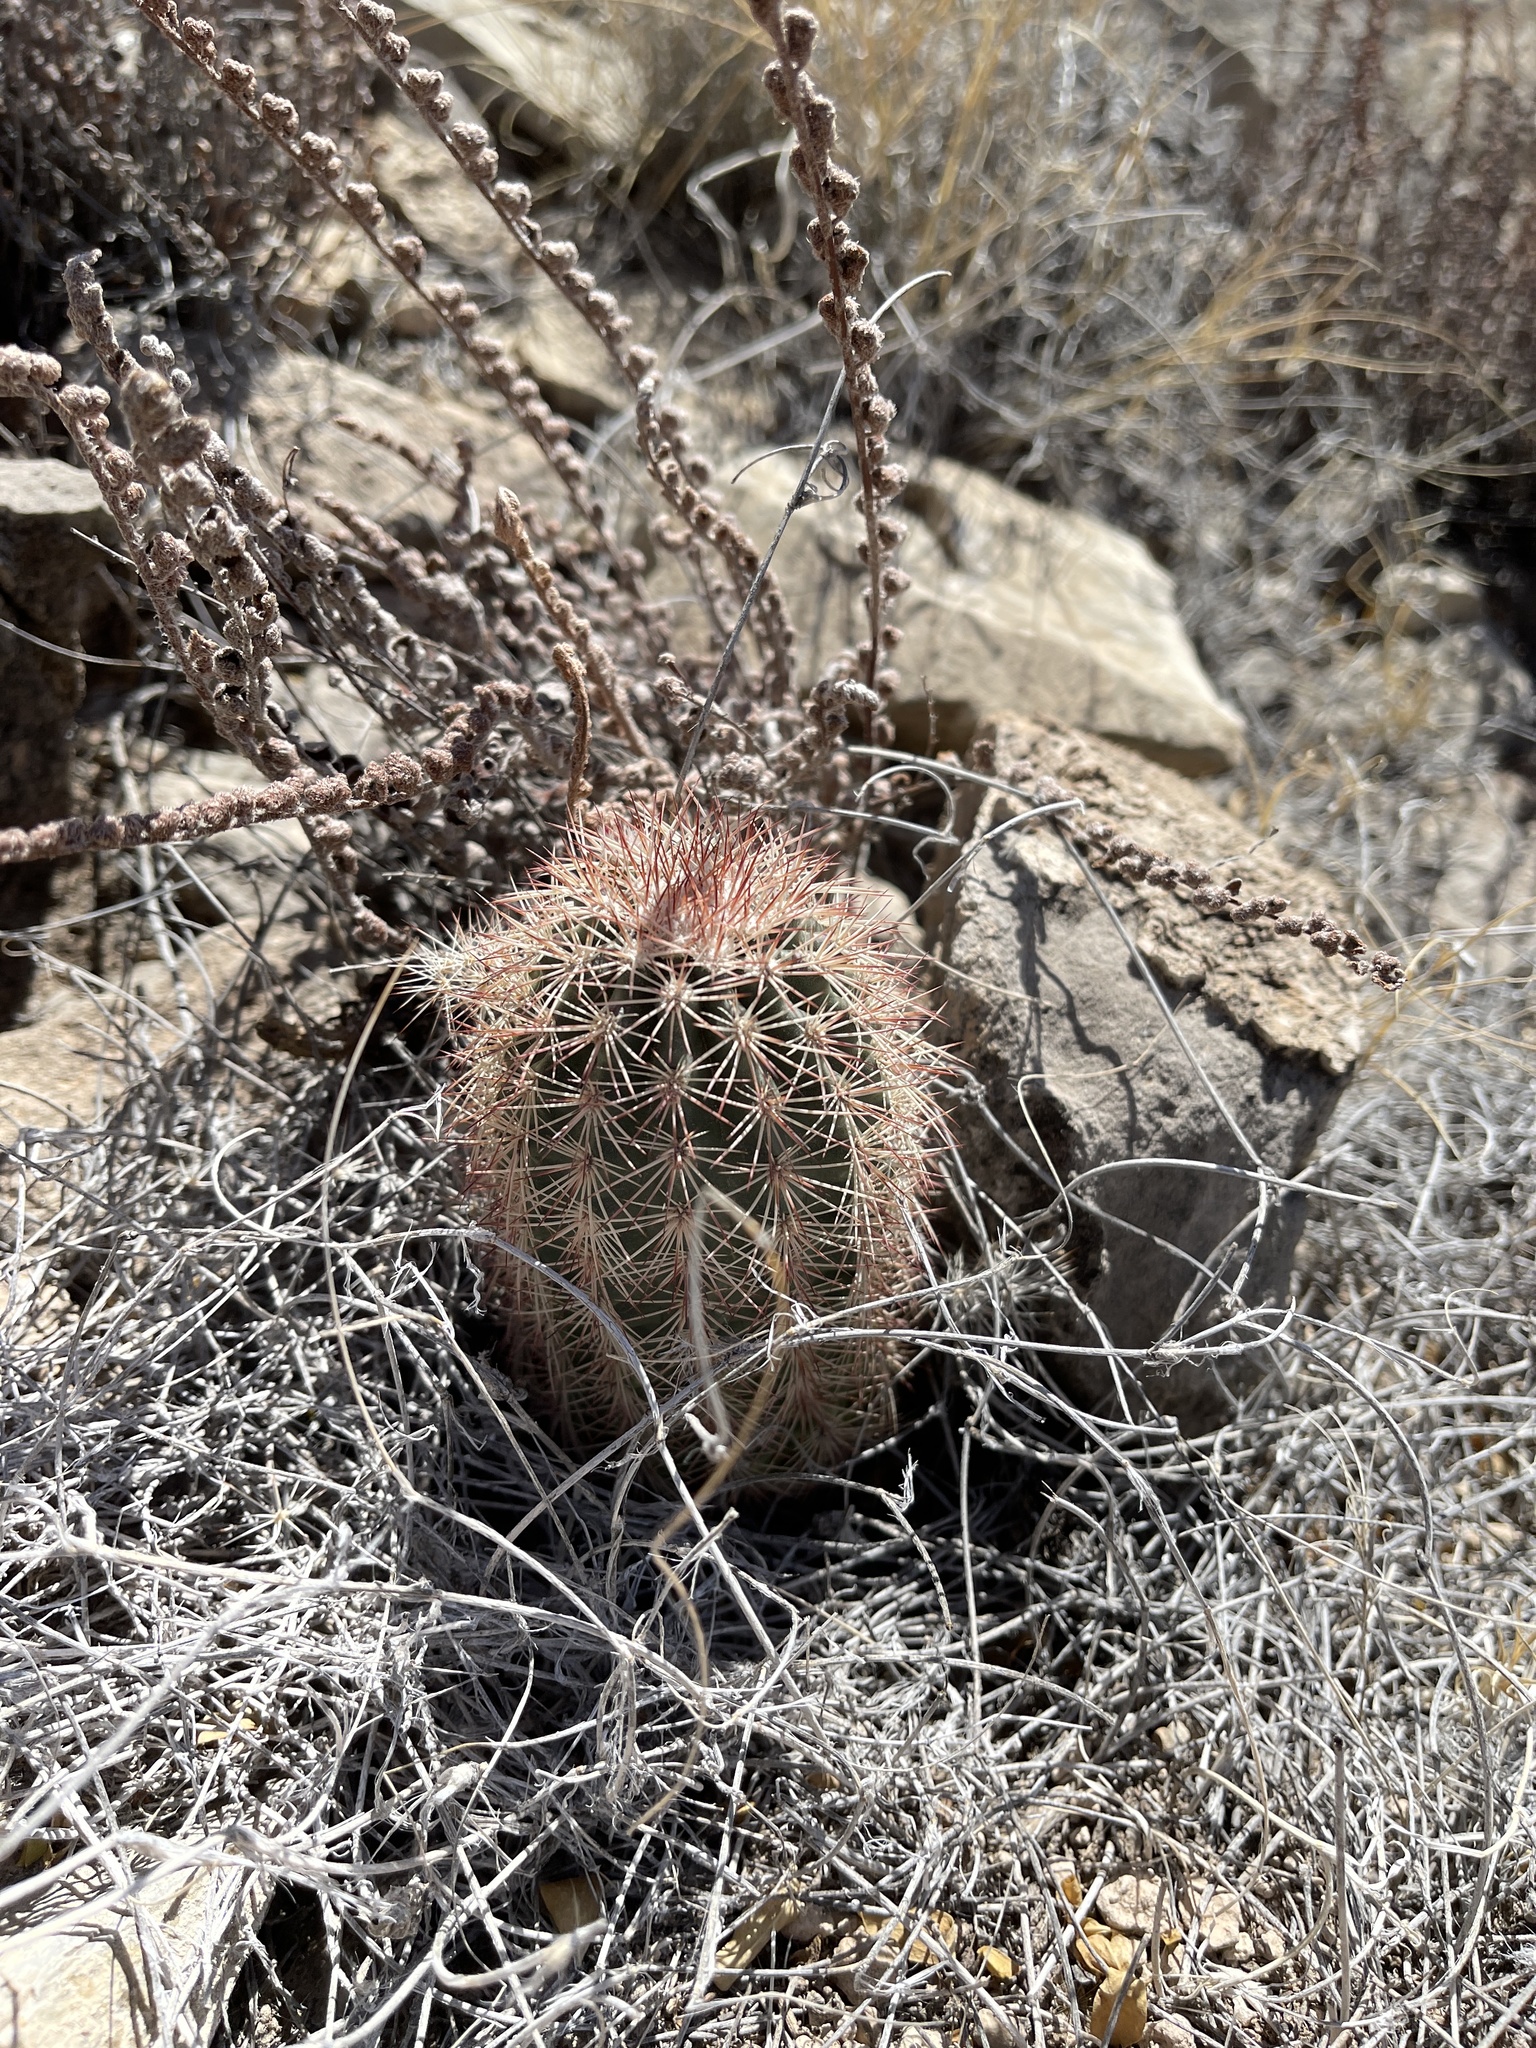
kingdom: Plantae
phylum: Tracheophyta
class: Magnoliopsida
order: Caryophyllales
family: Cactaceae
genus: Echinocereus
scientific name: Echinocereus dasyacanthus
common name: Spiny hedgehog cactus
